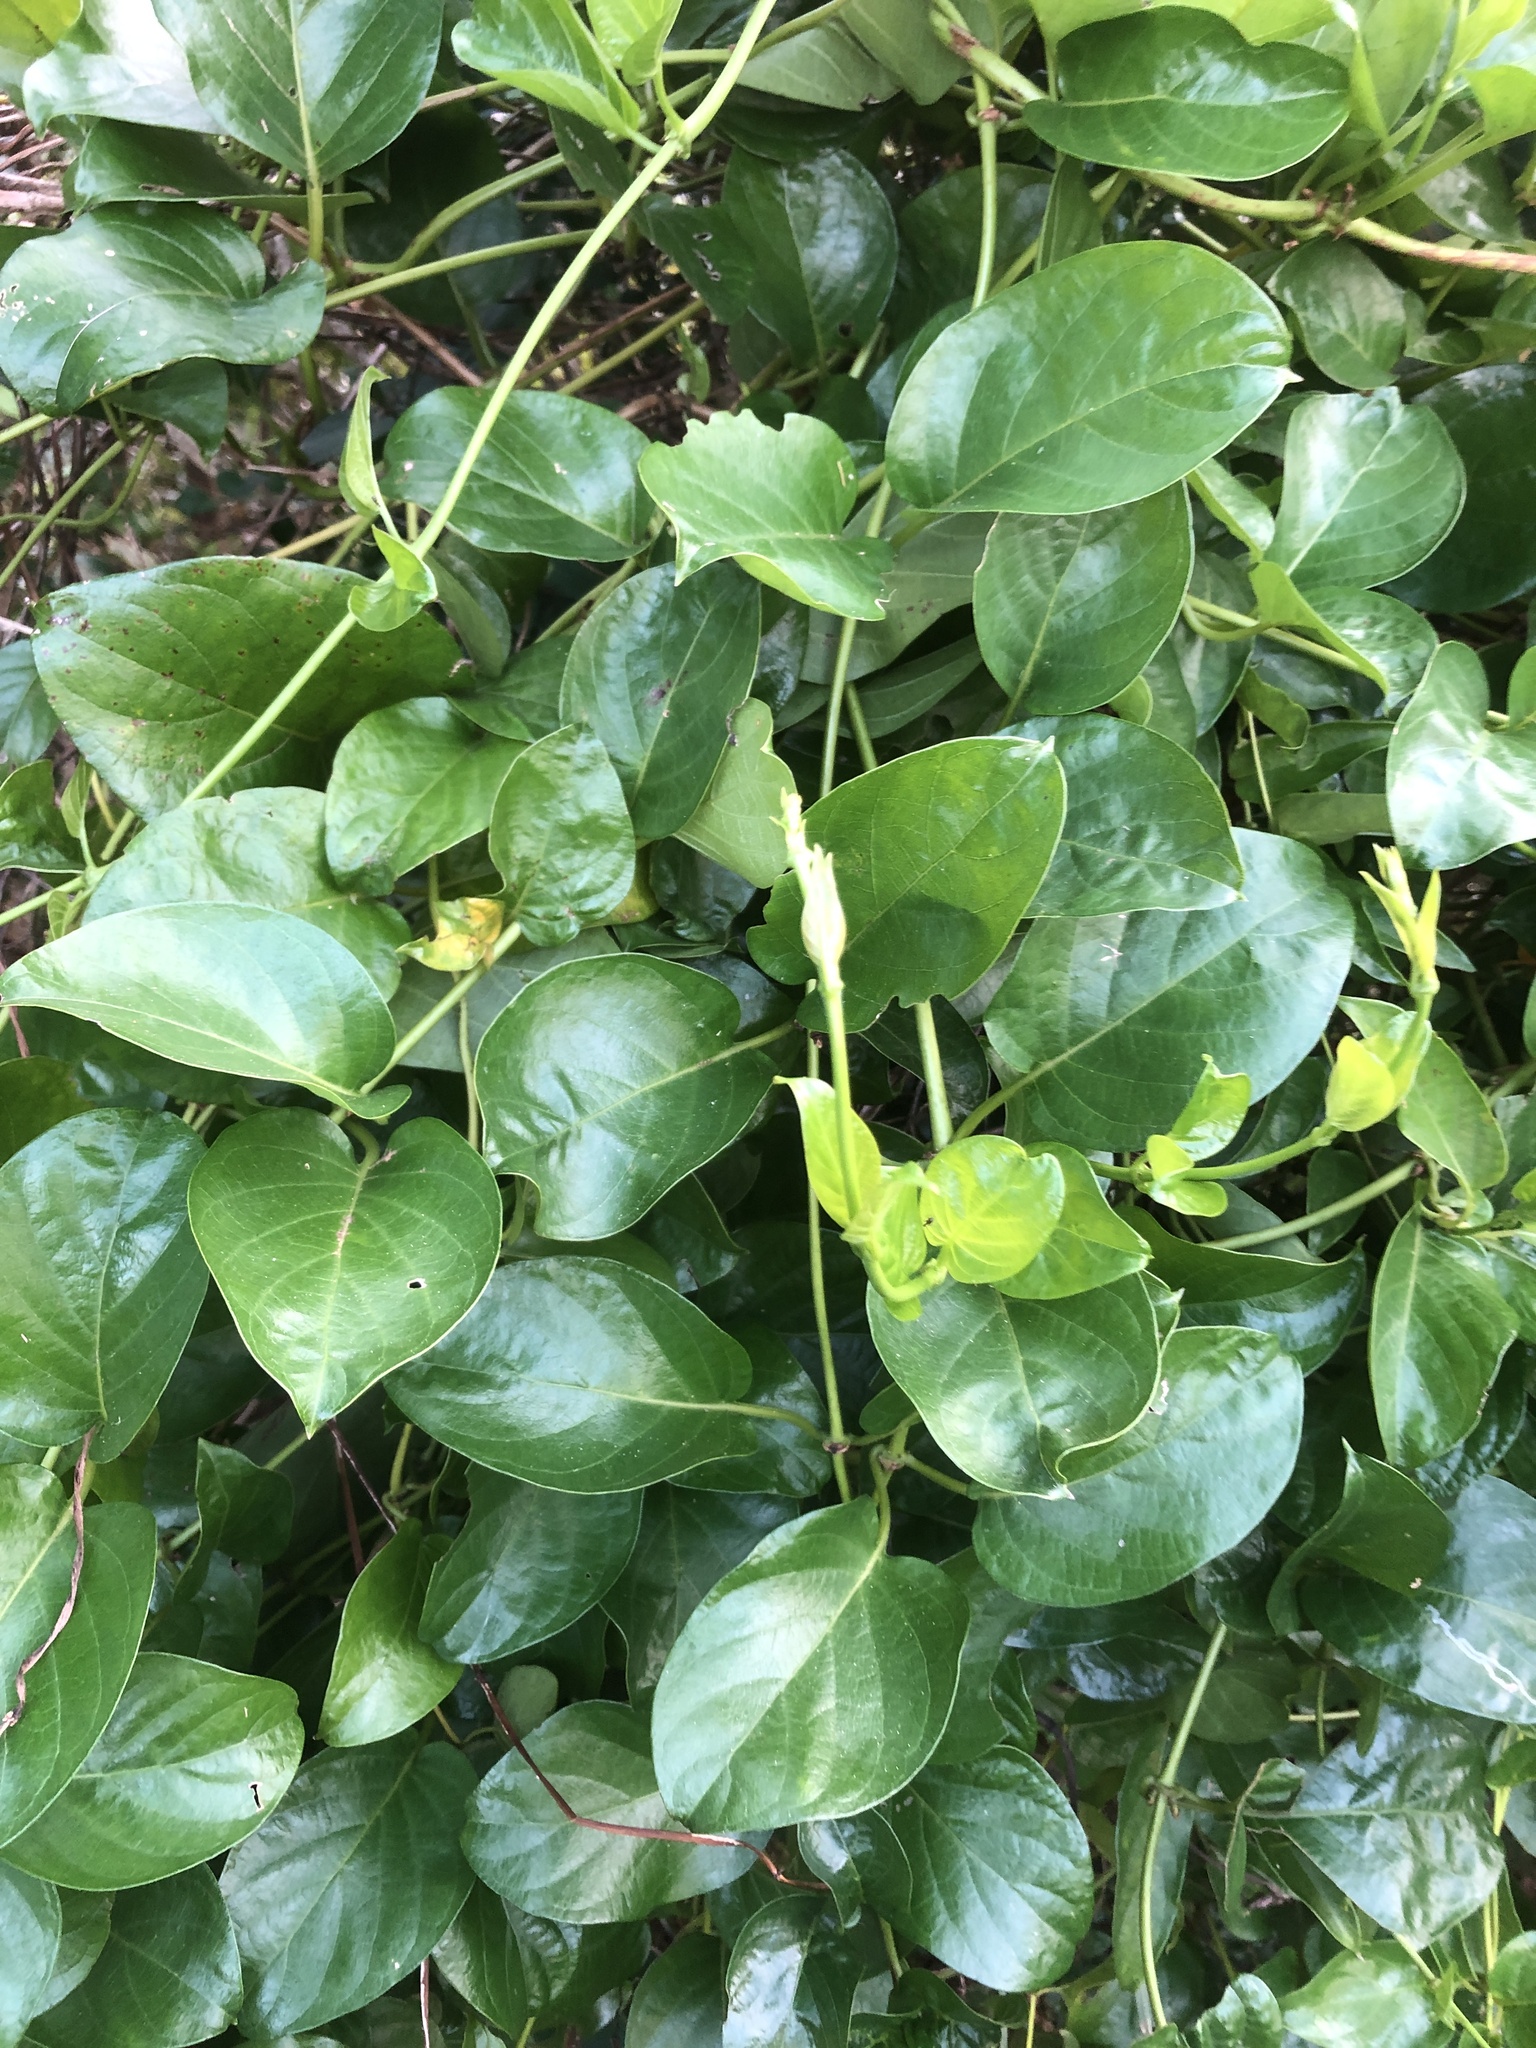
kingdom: Plantae
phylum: Tracheophyta
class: Magnoliopsida
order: Gentianales
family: Rubiaceae
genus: Paederia
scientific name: Paederia foetida
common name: Stinkvine
